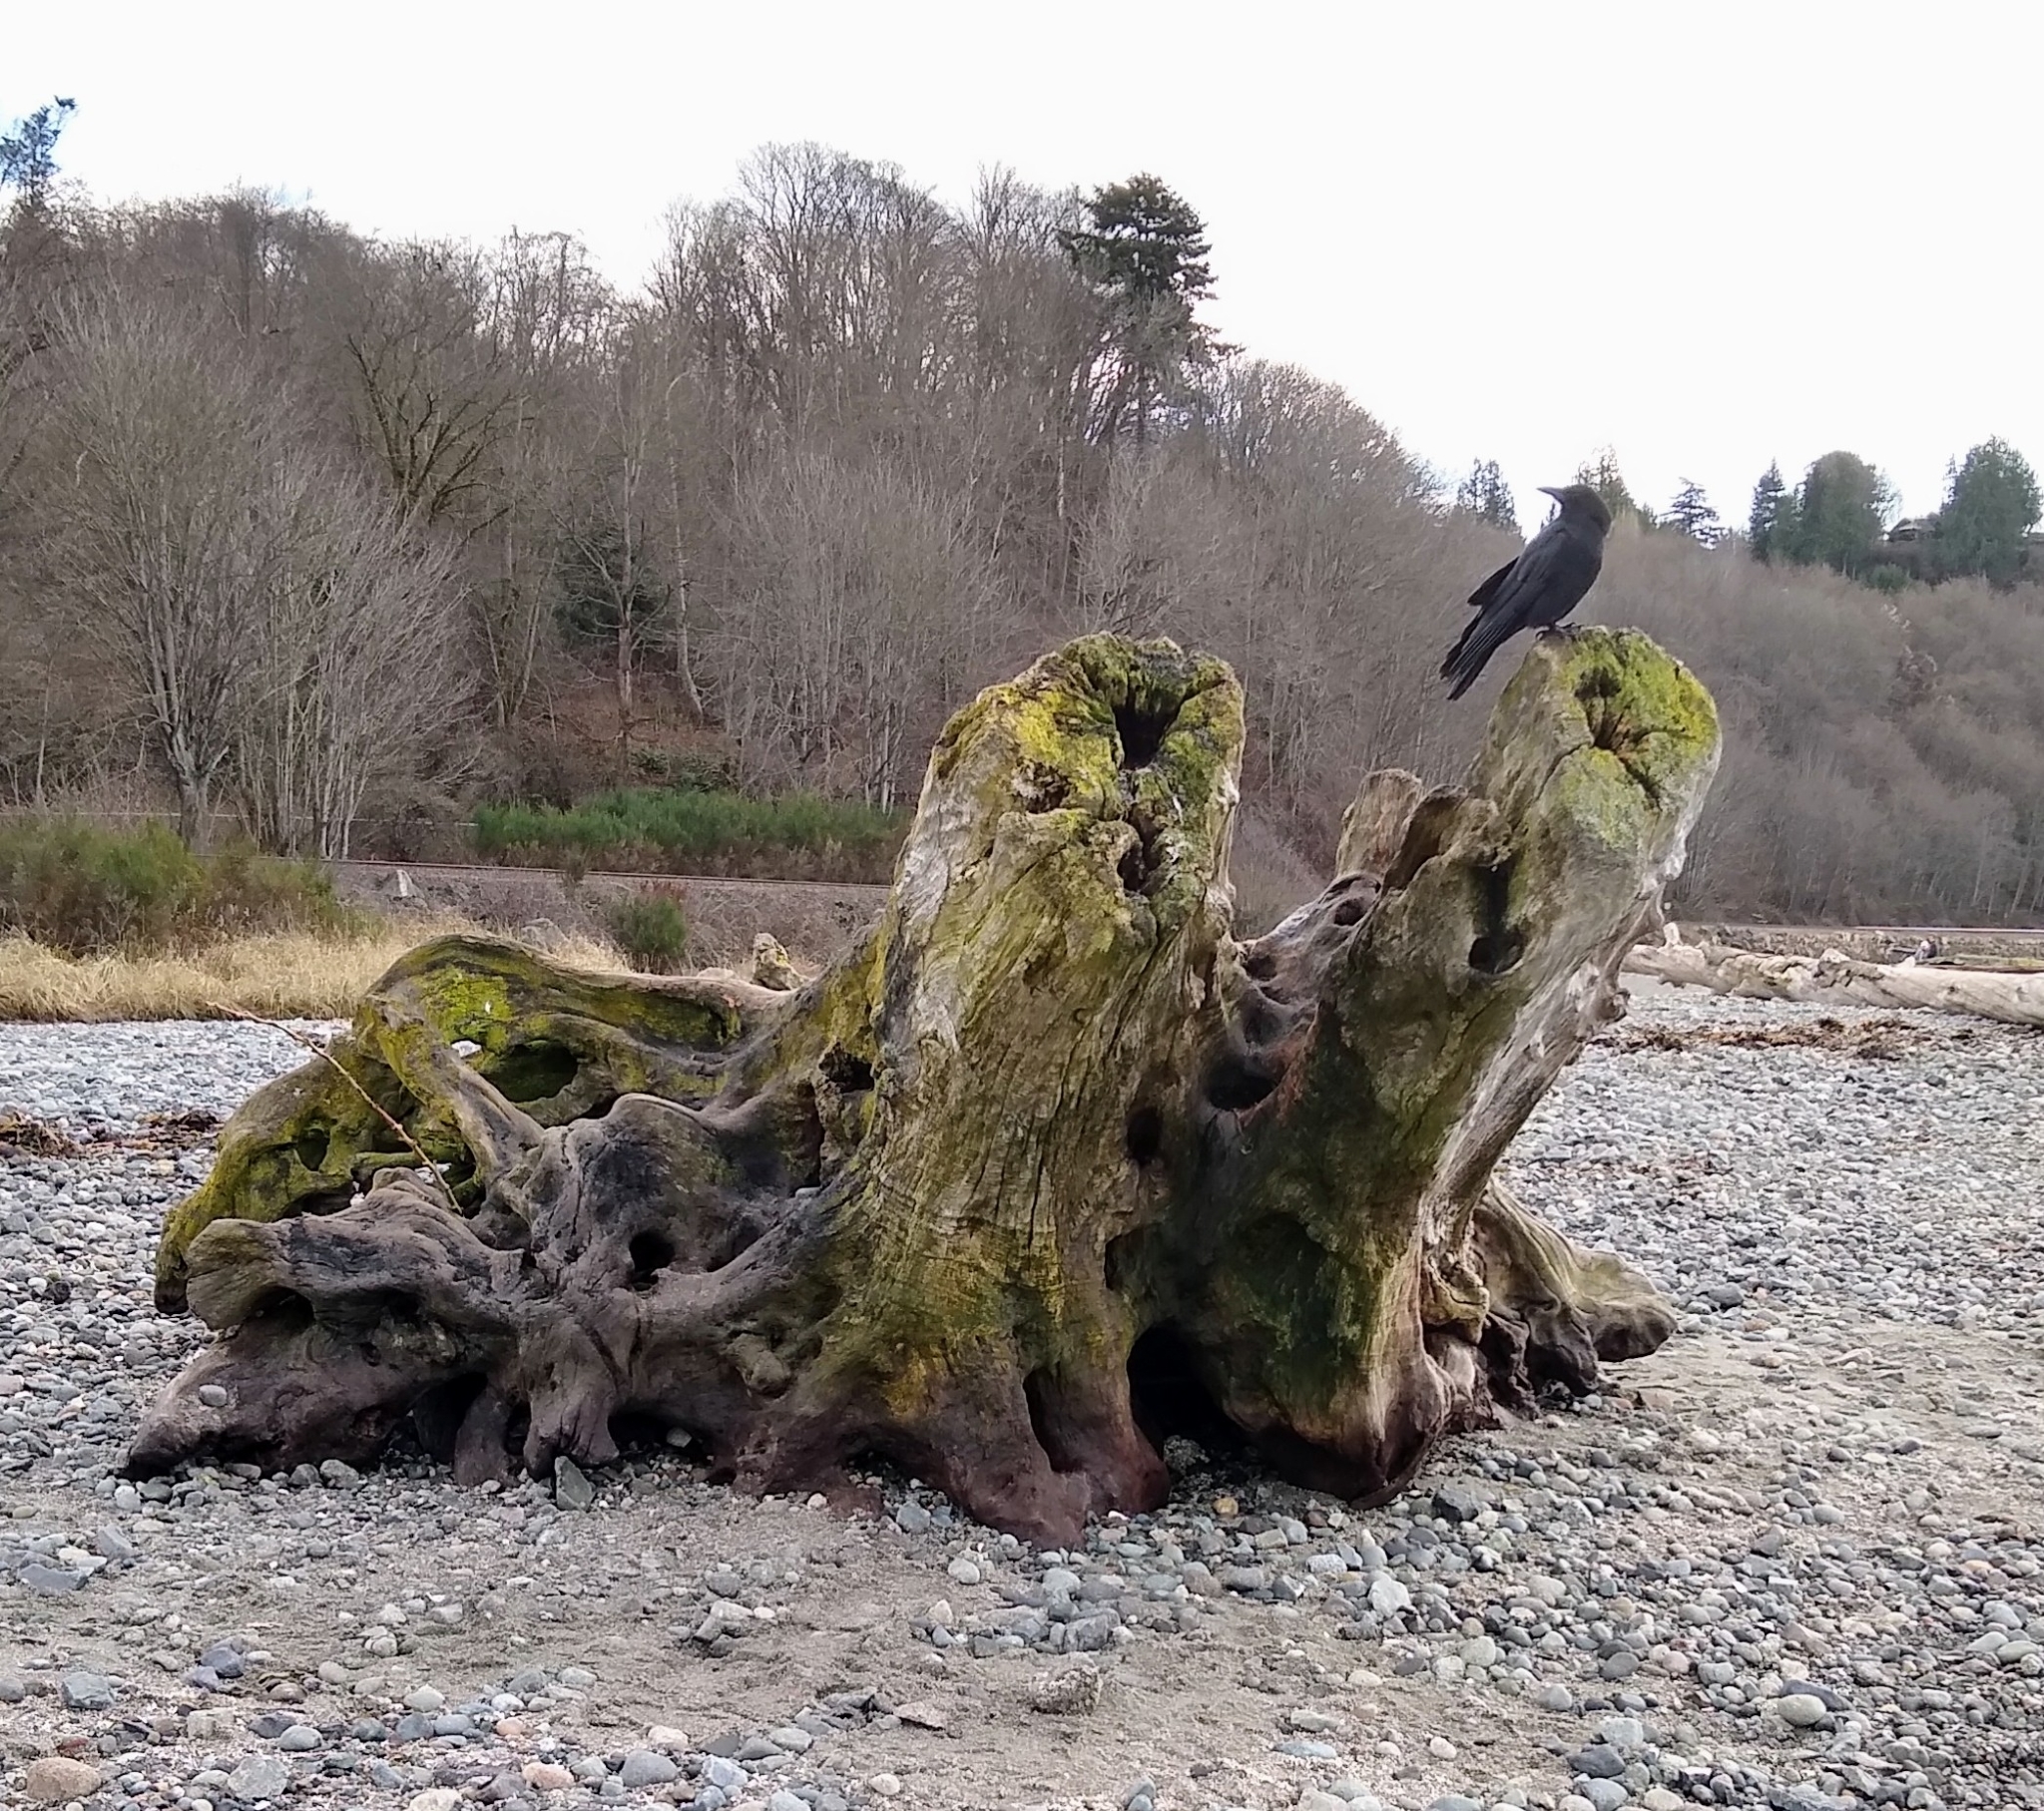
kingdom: Animalia
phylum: Chordata
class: Aves
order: Passeriformes
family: Corvidae
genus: Corvus
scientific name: Corvus brachyrhynchos
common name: American crow
